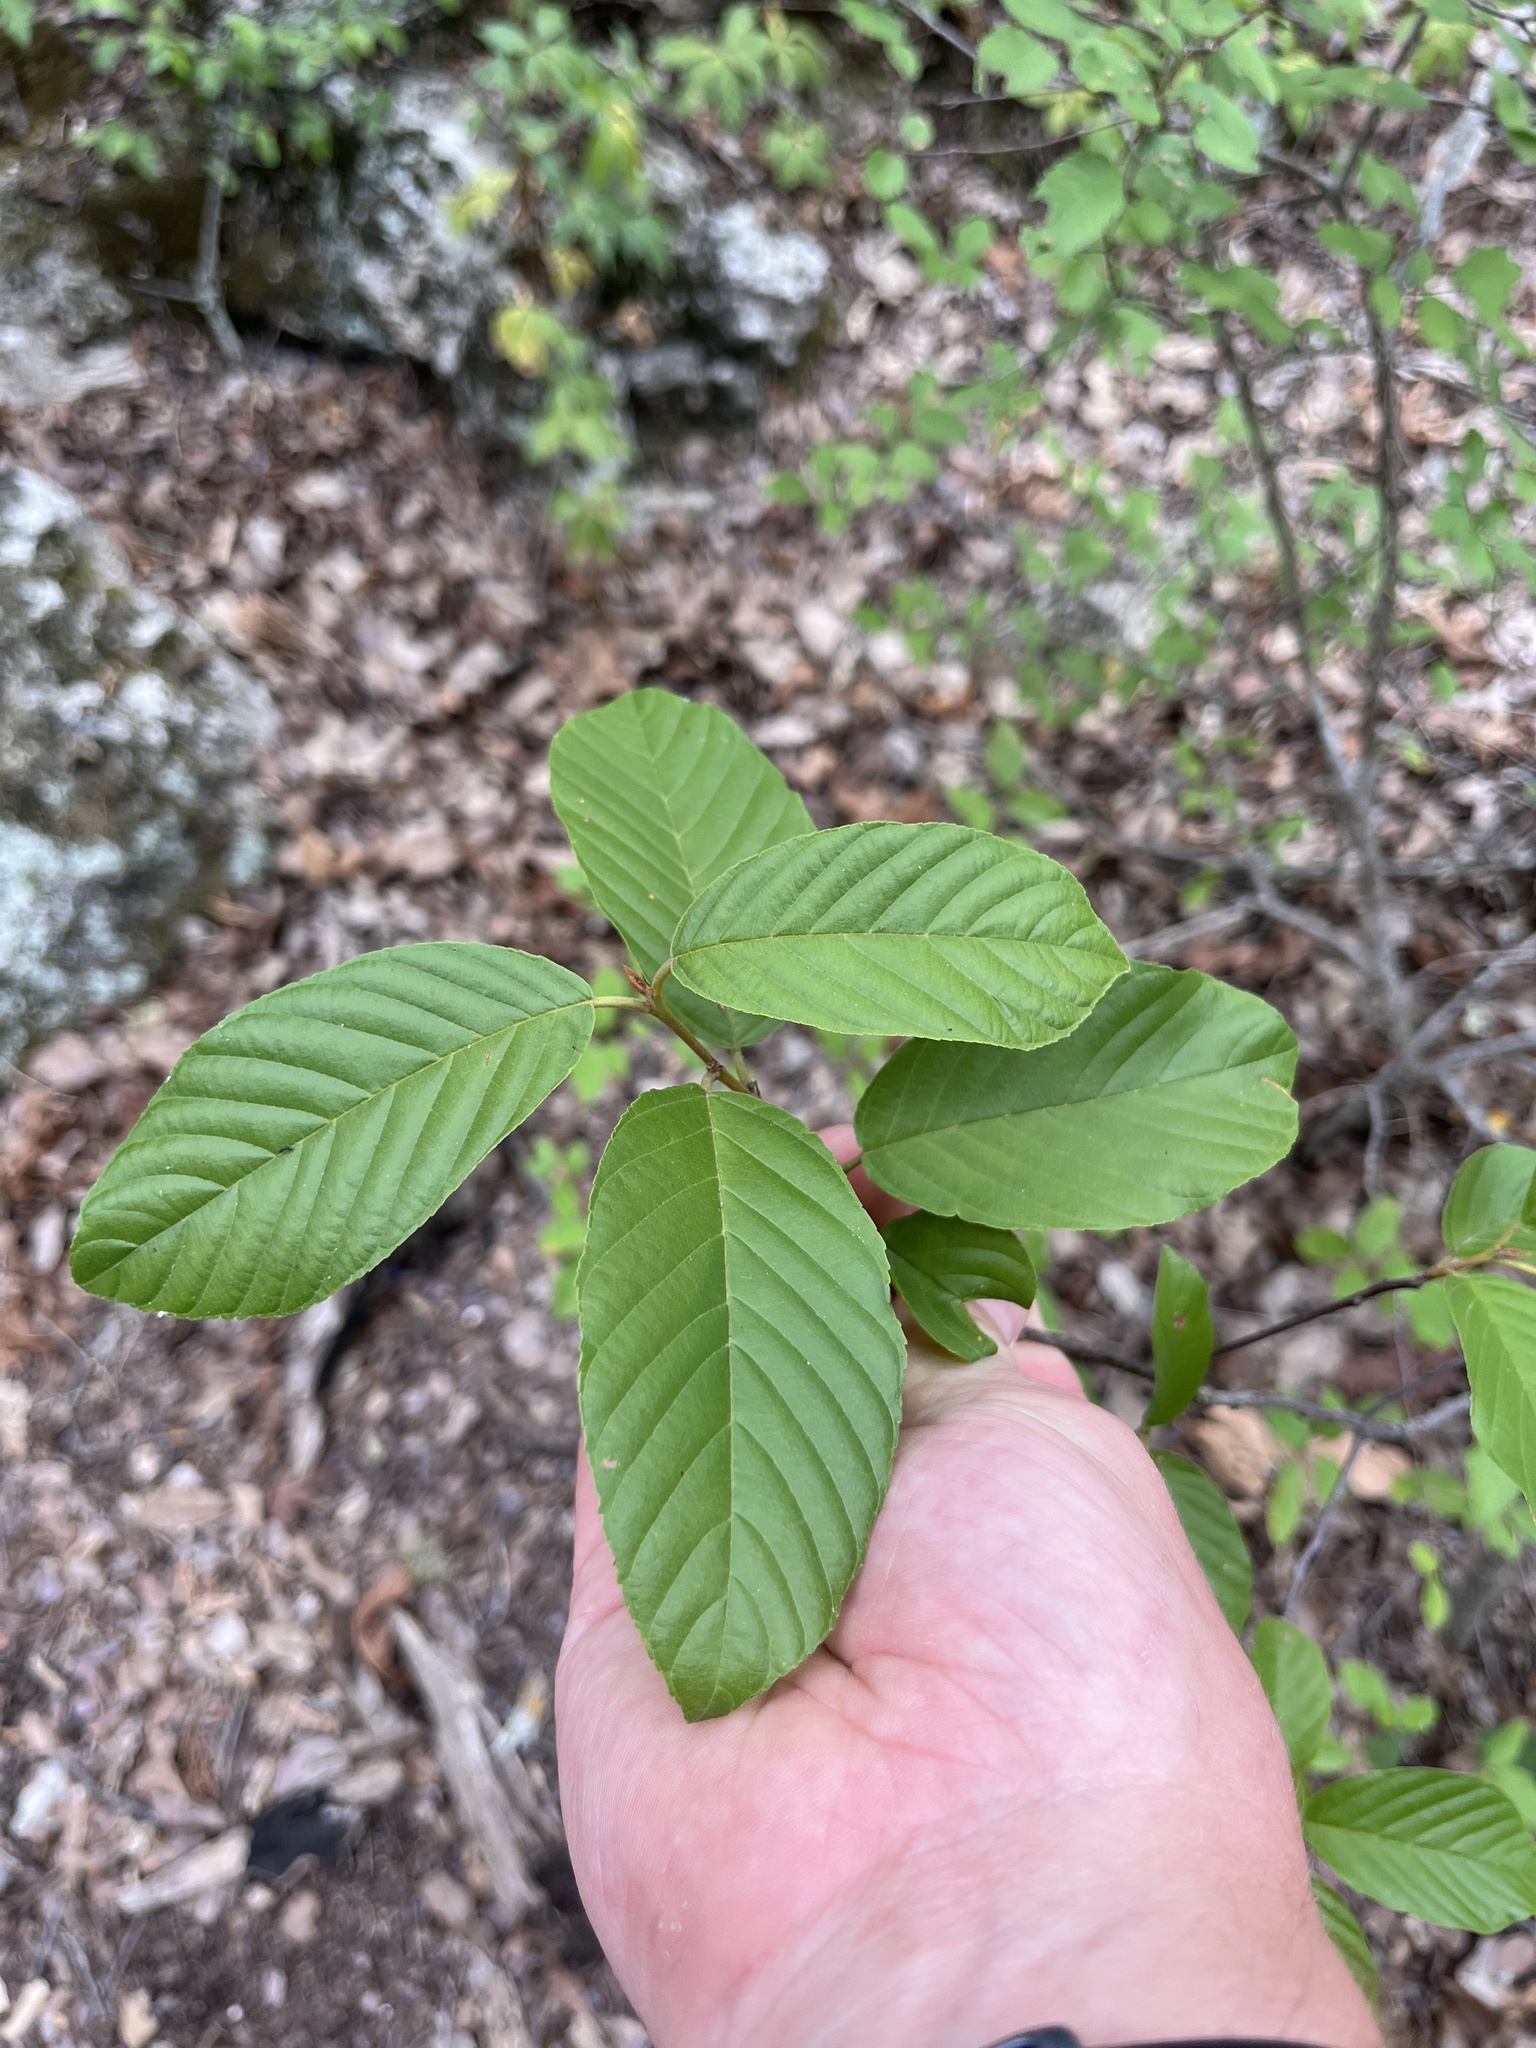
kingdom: Plantae
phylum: Tracheophyta
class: Magnoliopsida
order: Rosales
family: Rhamnaceae
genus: Frangula
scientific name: Frangula caroliniana
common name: Carolina buckthorn
